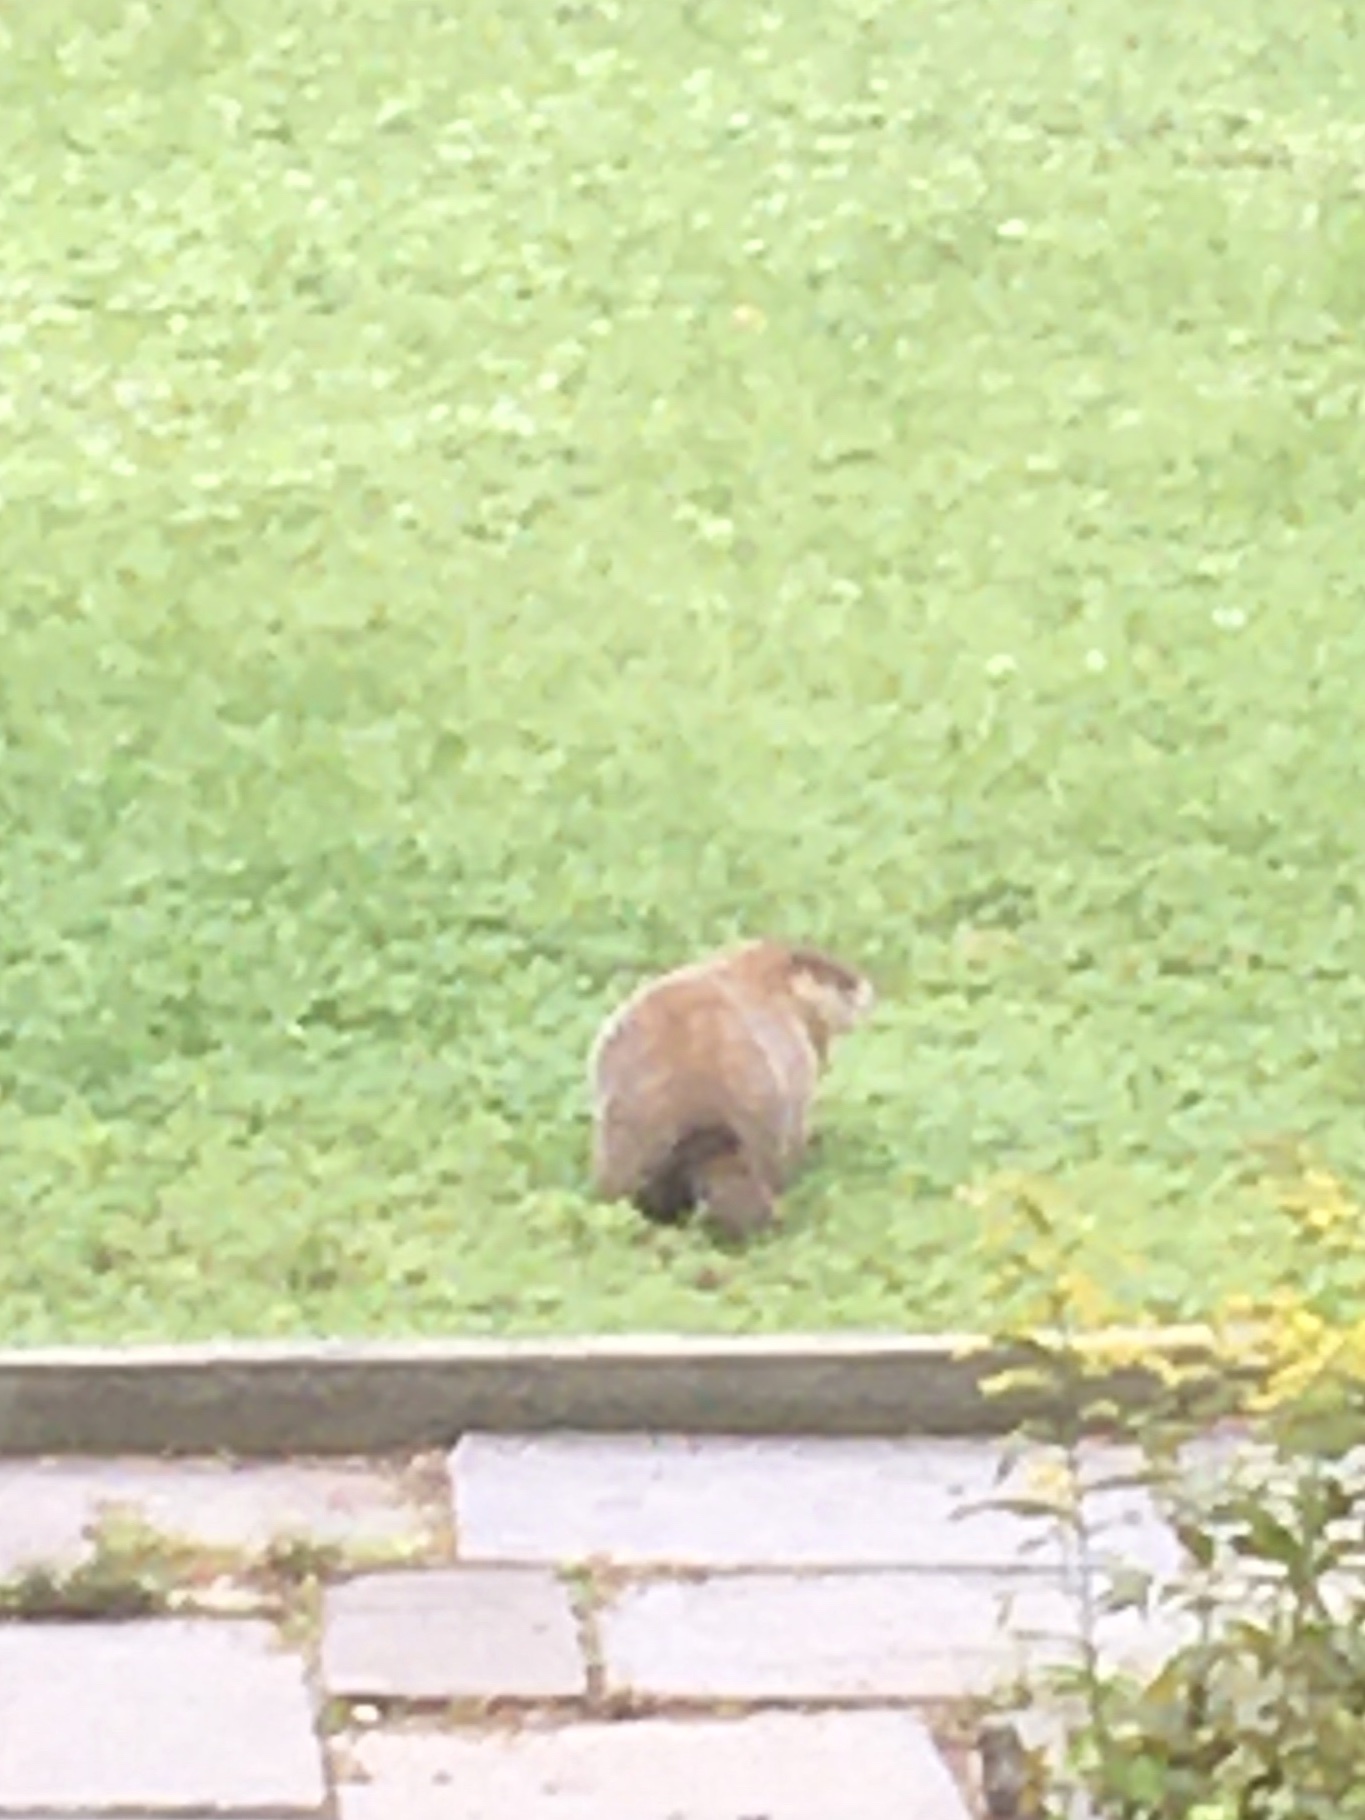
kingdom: Animalia
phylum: Chordata
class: Mammalia
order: Rodentia
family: Sciuridae
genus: Marmota
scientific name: Marmota monax
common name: Groundhog
